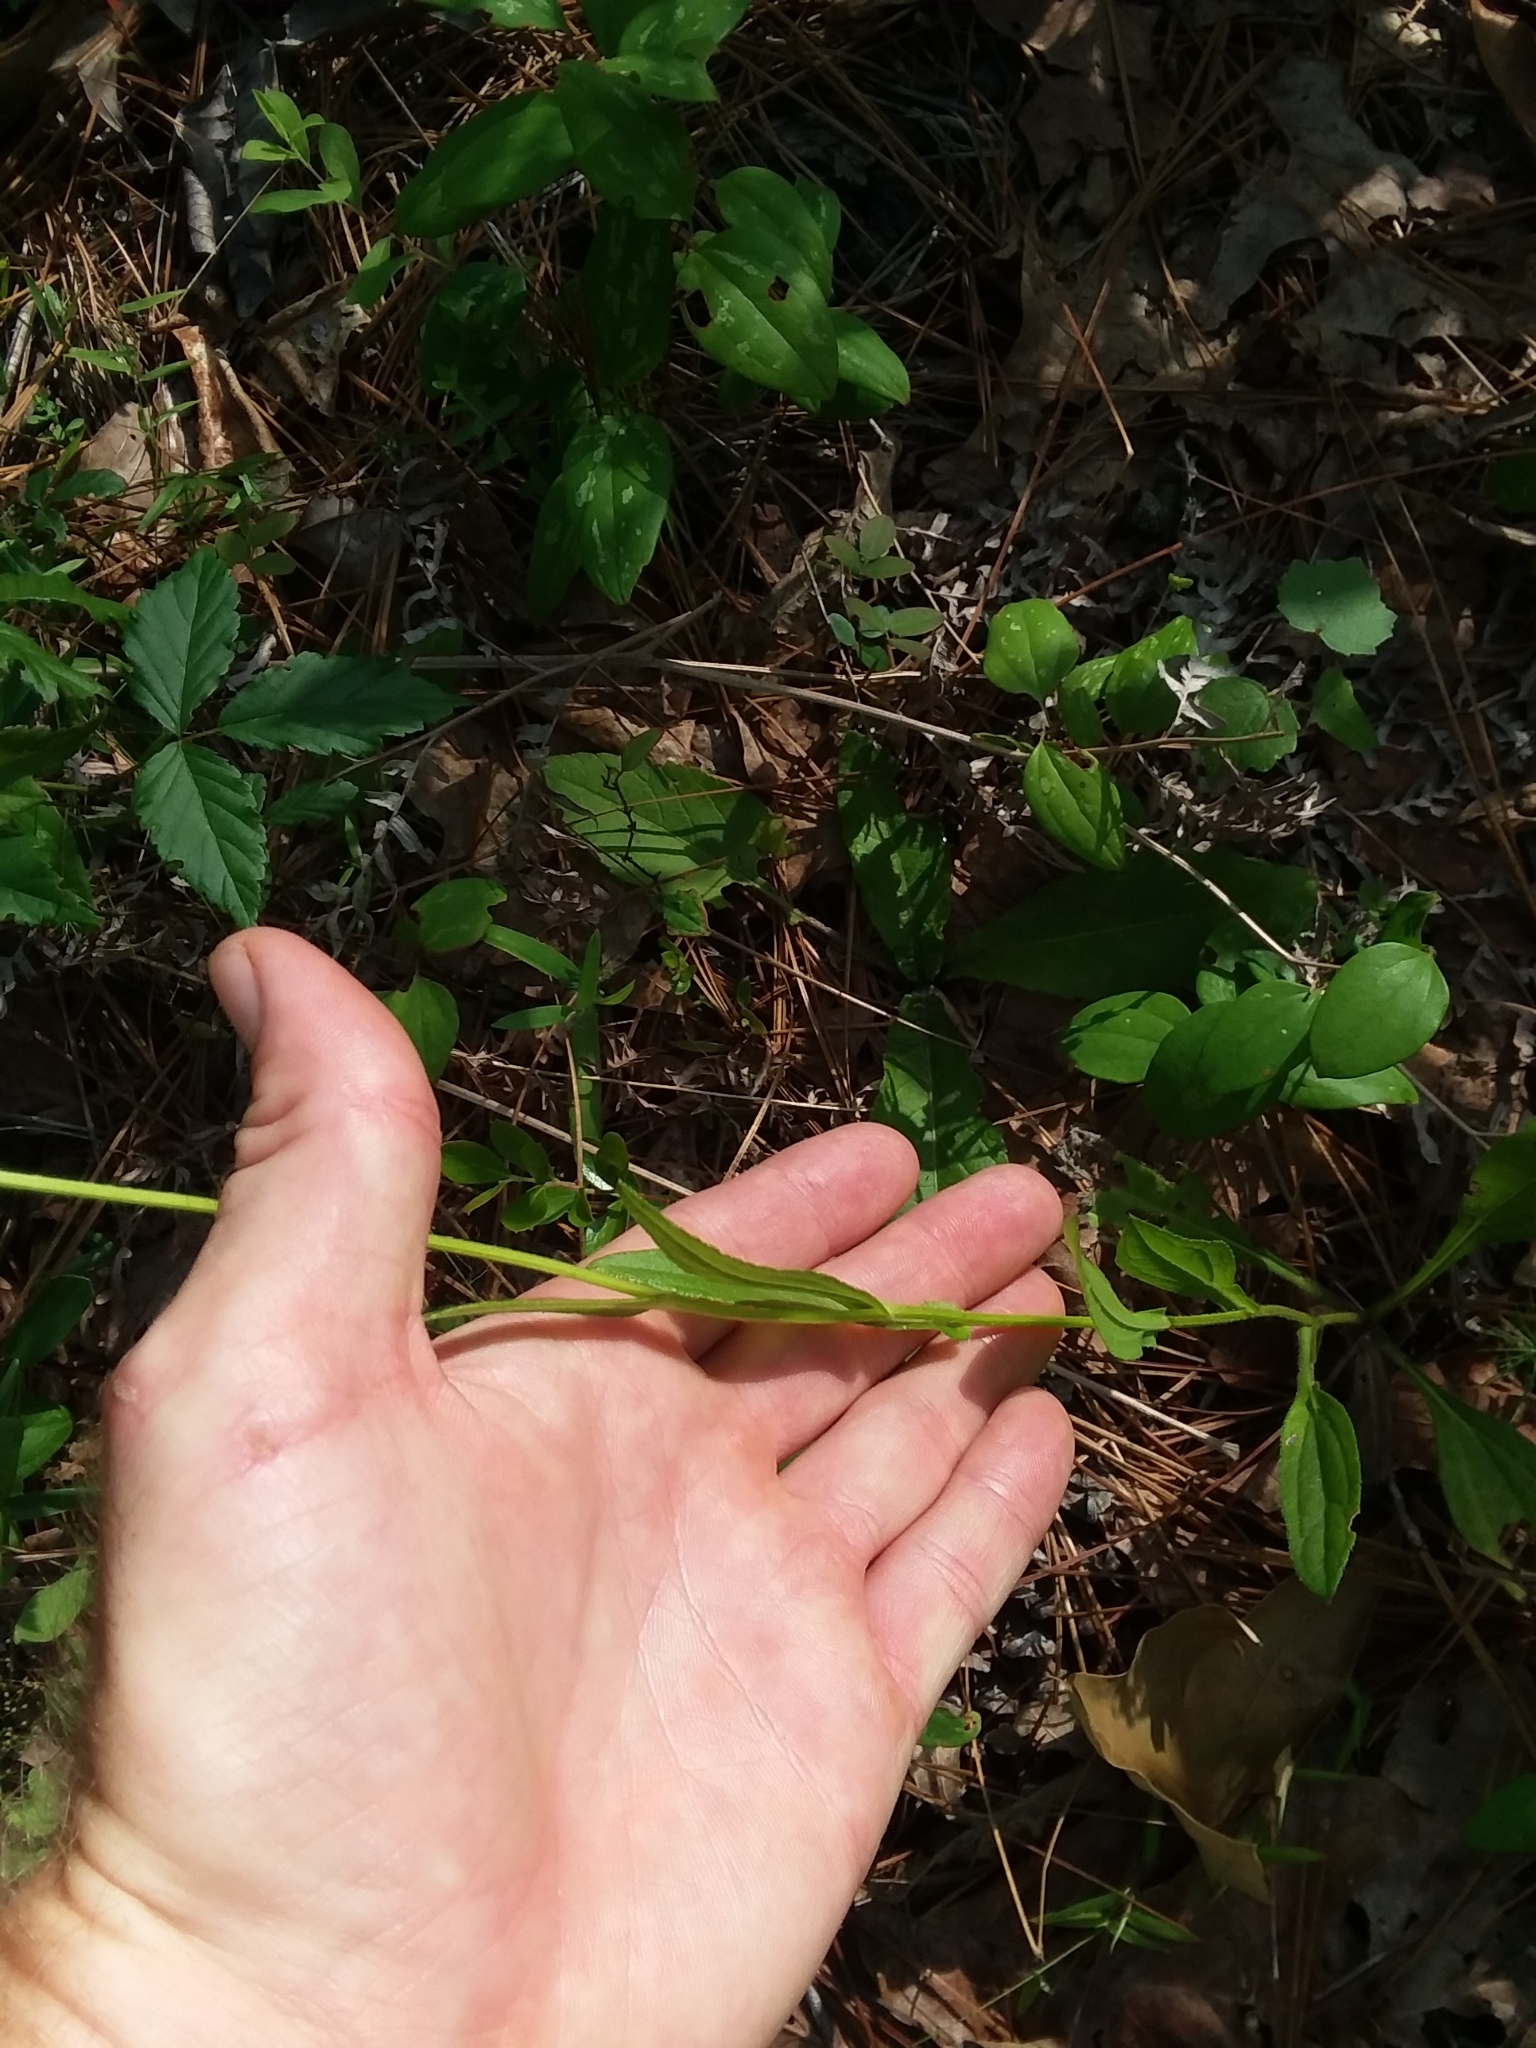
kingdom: Plantae
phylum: Tracheophyta
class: Magnoliopsida
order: Asterales
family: Asteraceae
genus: Rudbeckia
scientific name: Rudbeckia hirta
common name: Black-eyed-susan
